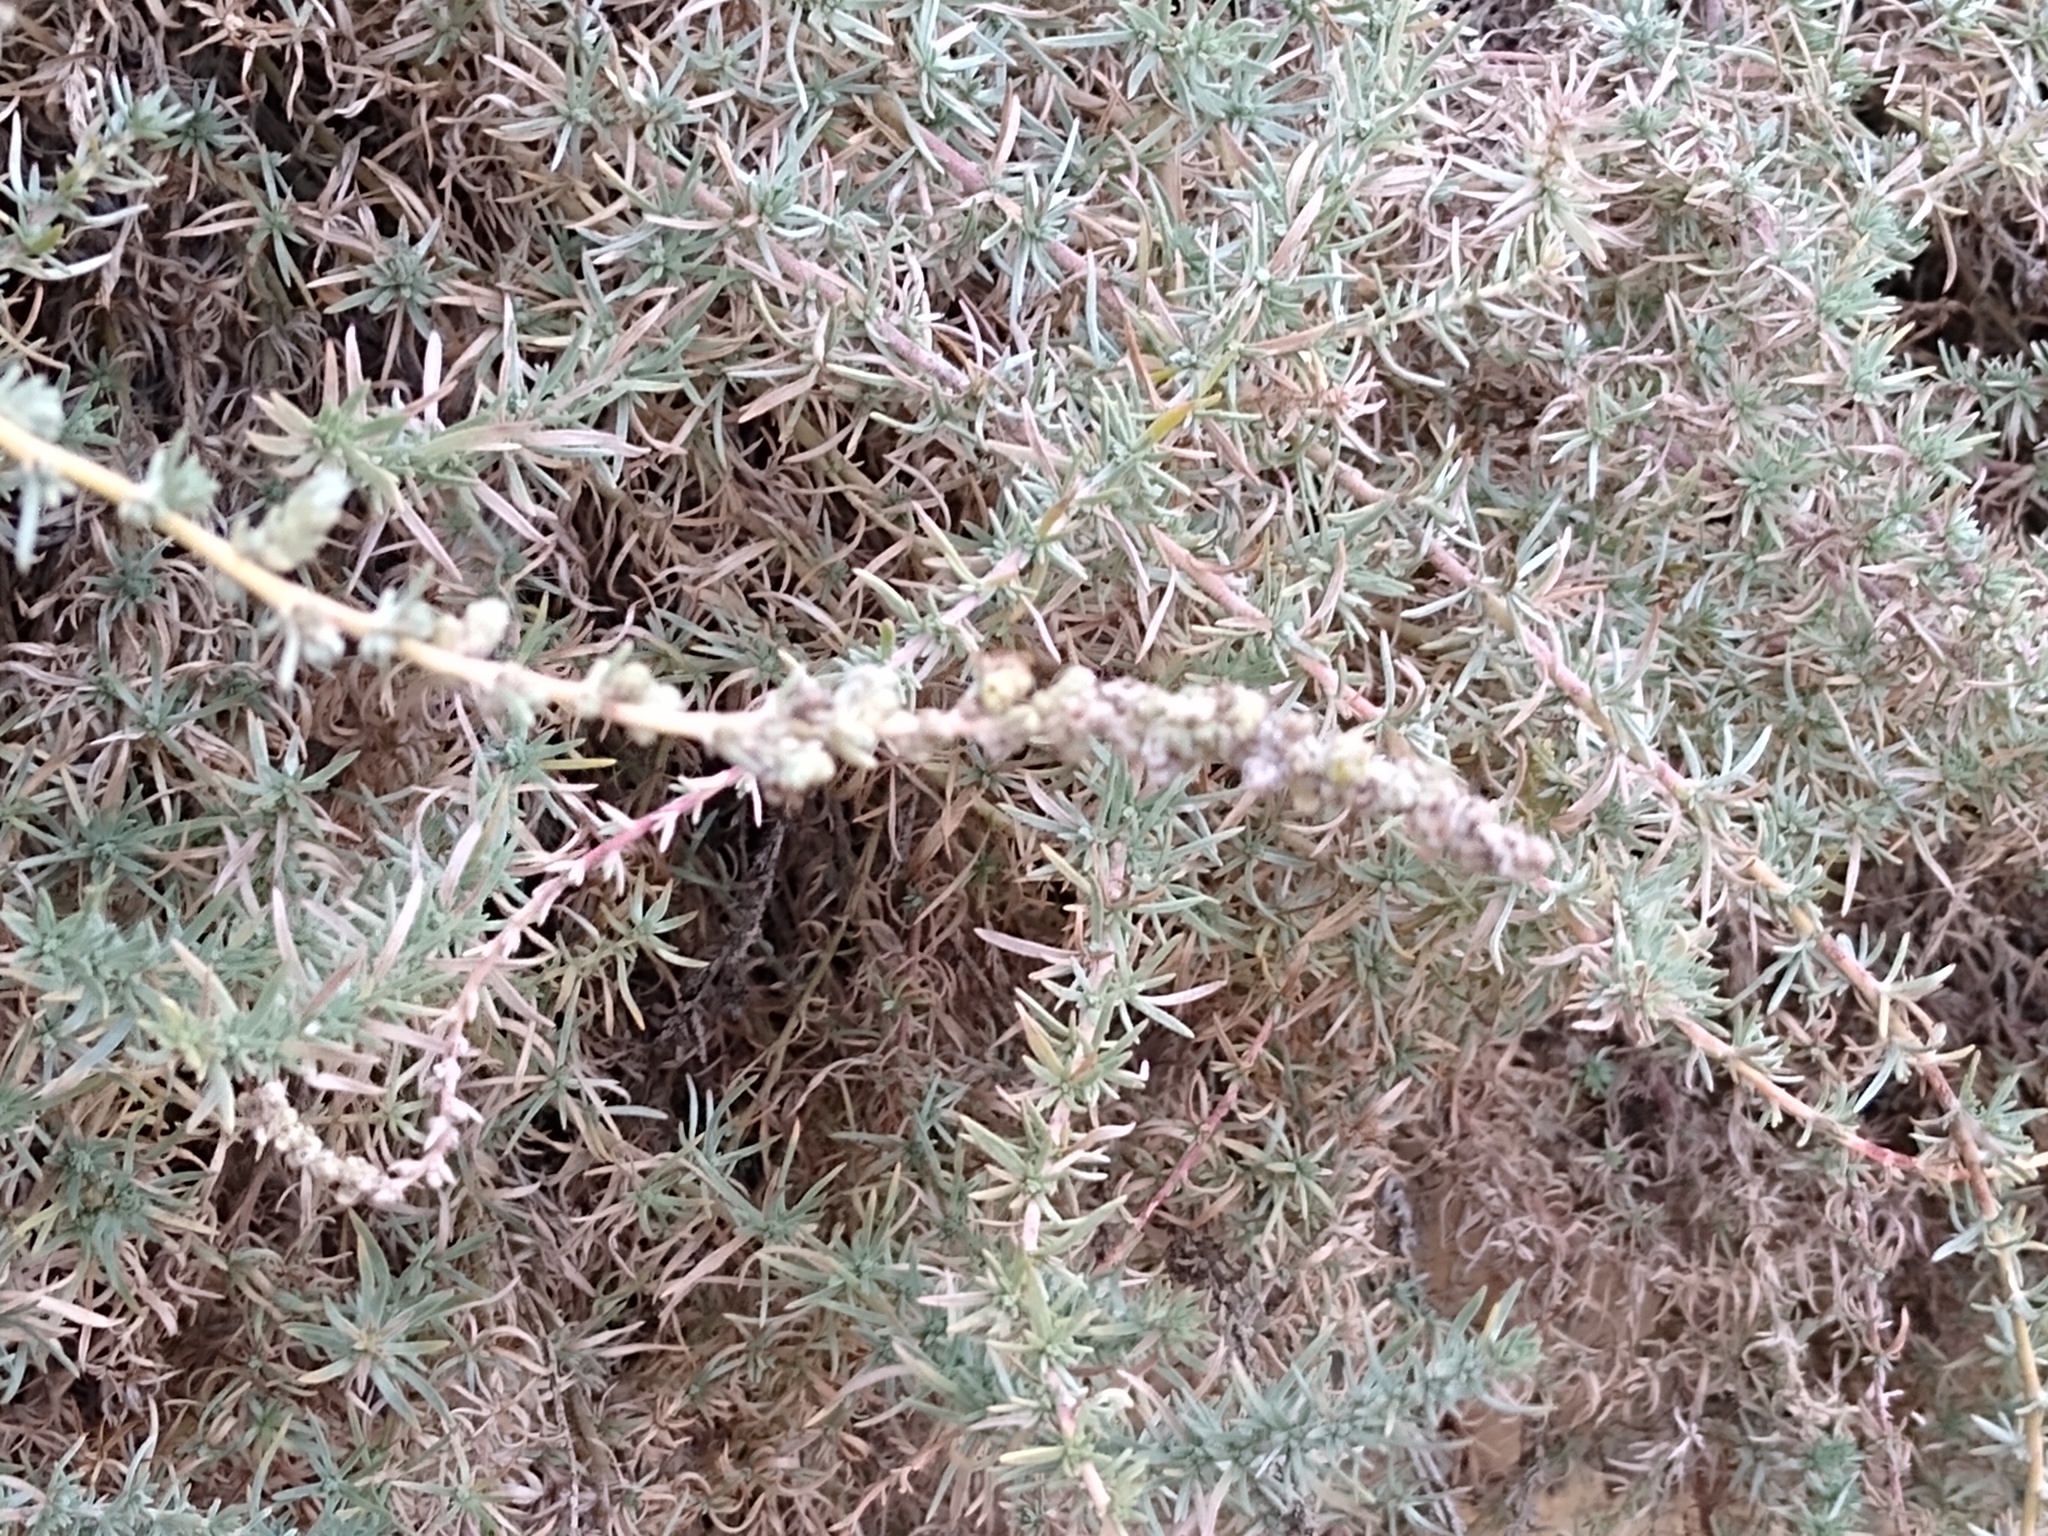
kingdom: Plantae
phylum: Tracheophyta
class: Magnoliopsida
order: Caryophyllales
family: Amaranthaceae
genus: Bassia
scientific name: Bassia prostrata
